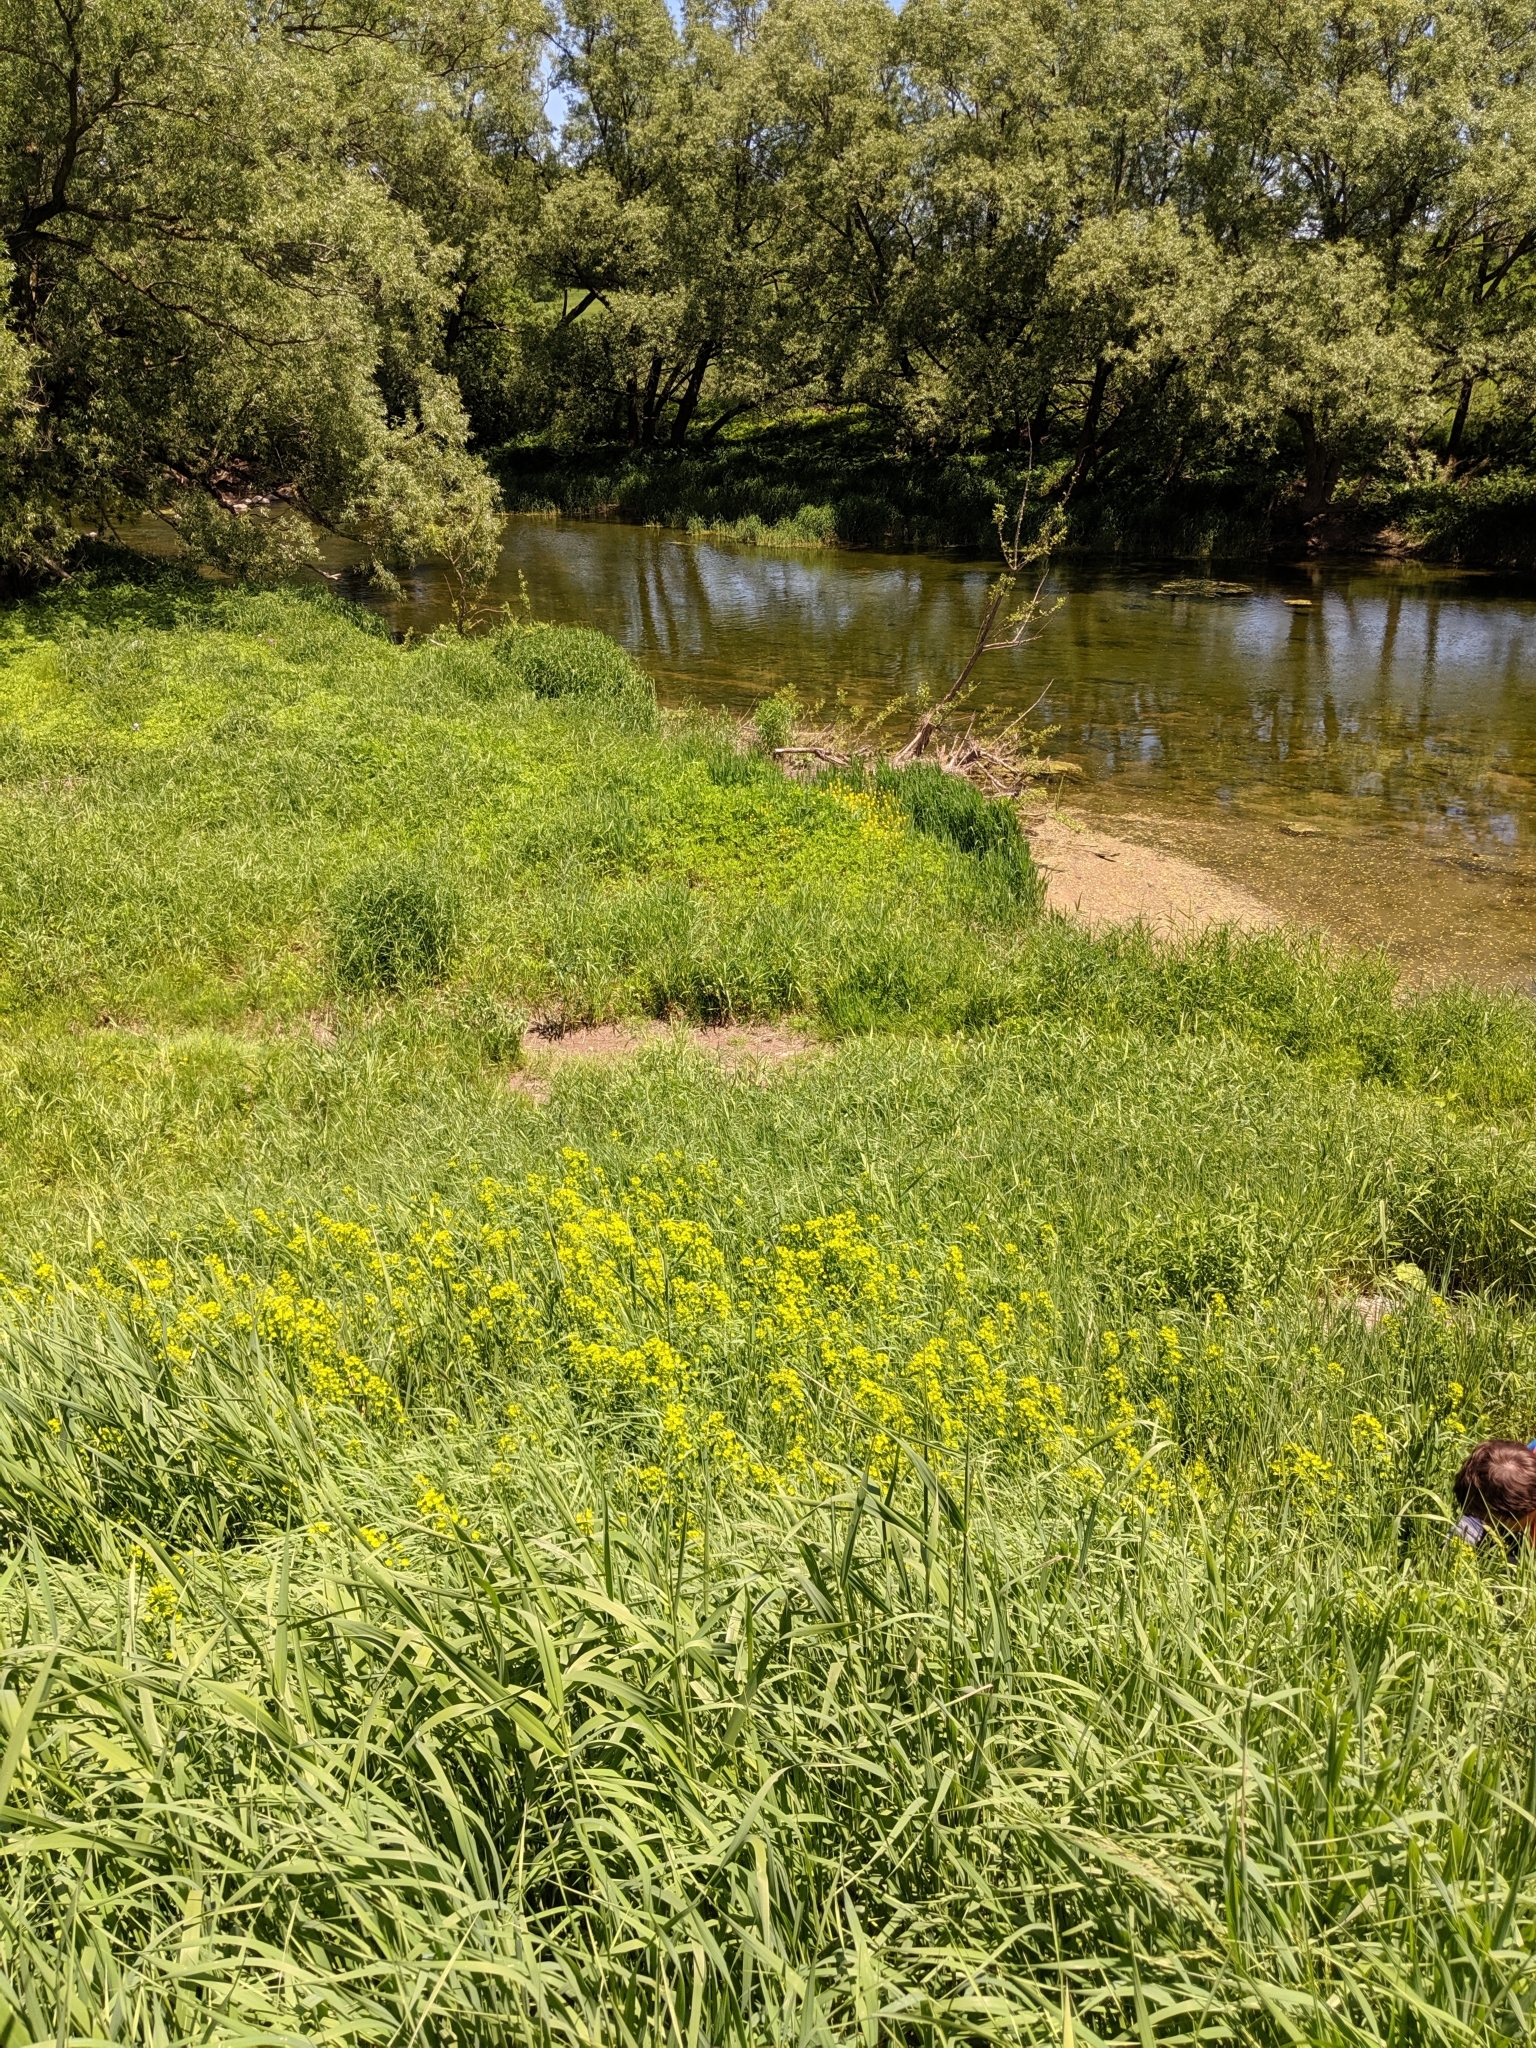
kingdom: Plantae
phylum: Tracheophyta
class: Magnoliopsida
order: Malpighiales
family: Euphorbiaceae
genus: Euphorbia
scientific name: Euphorbia virgata
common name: Leafy spurge
